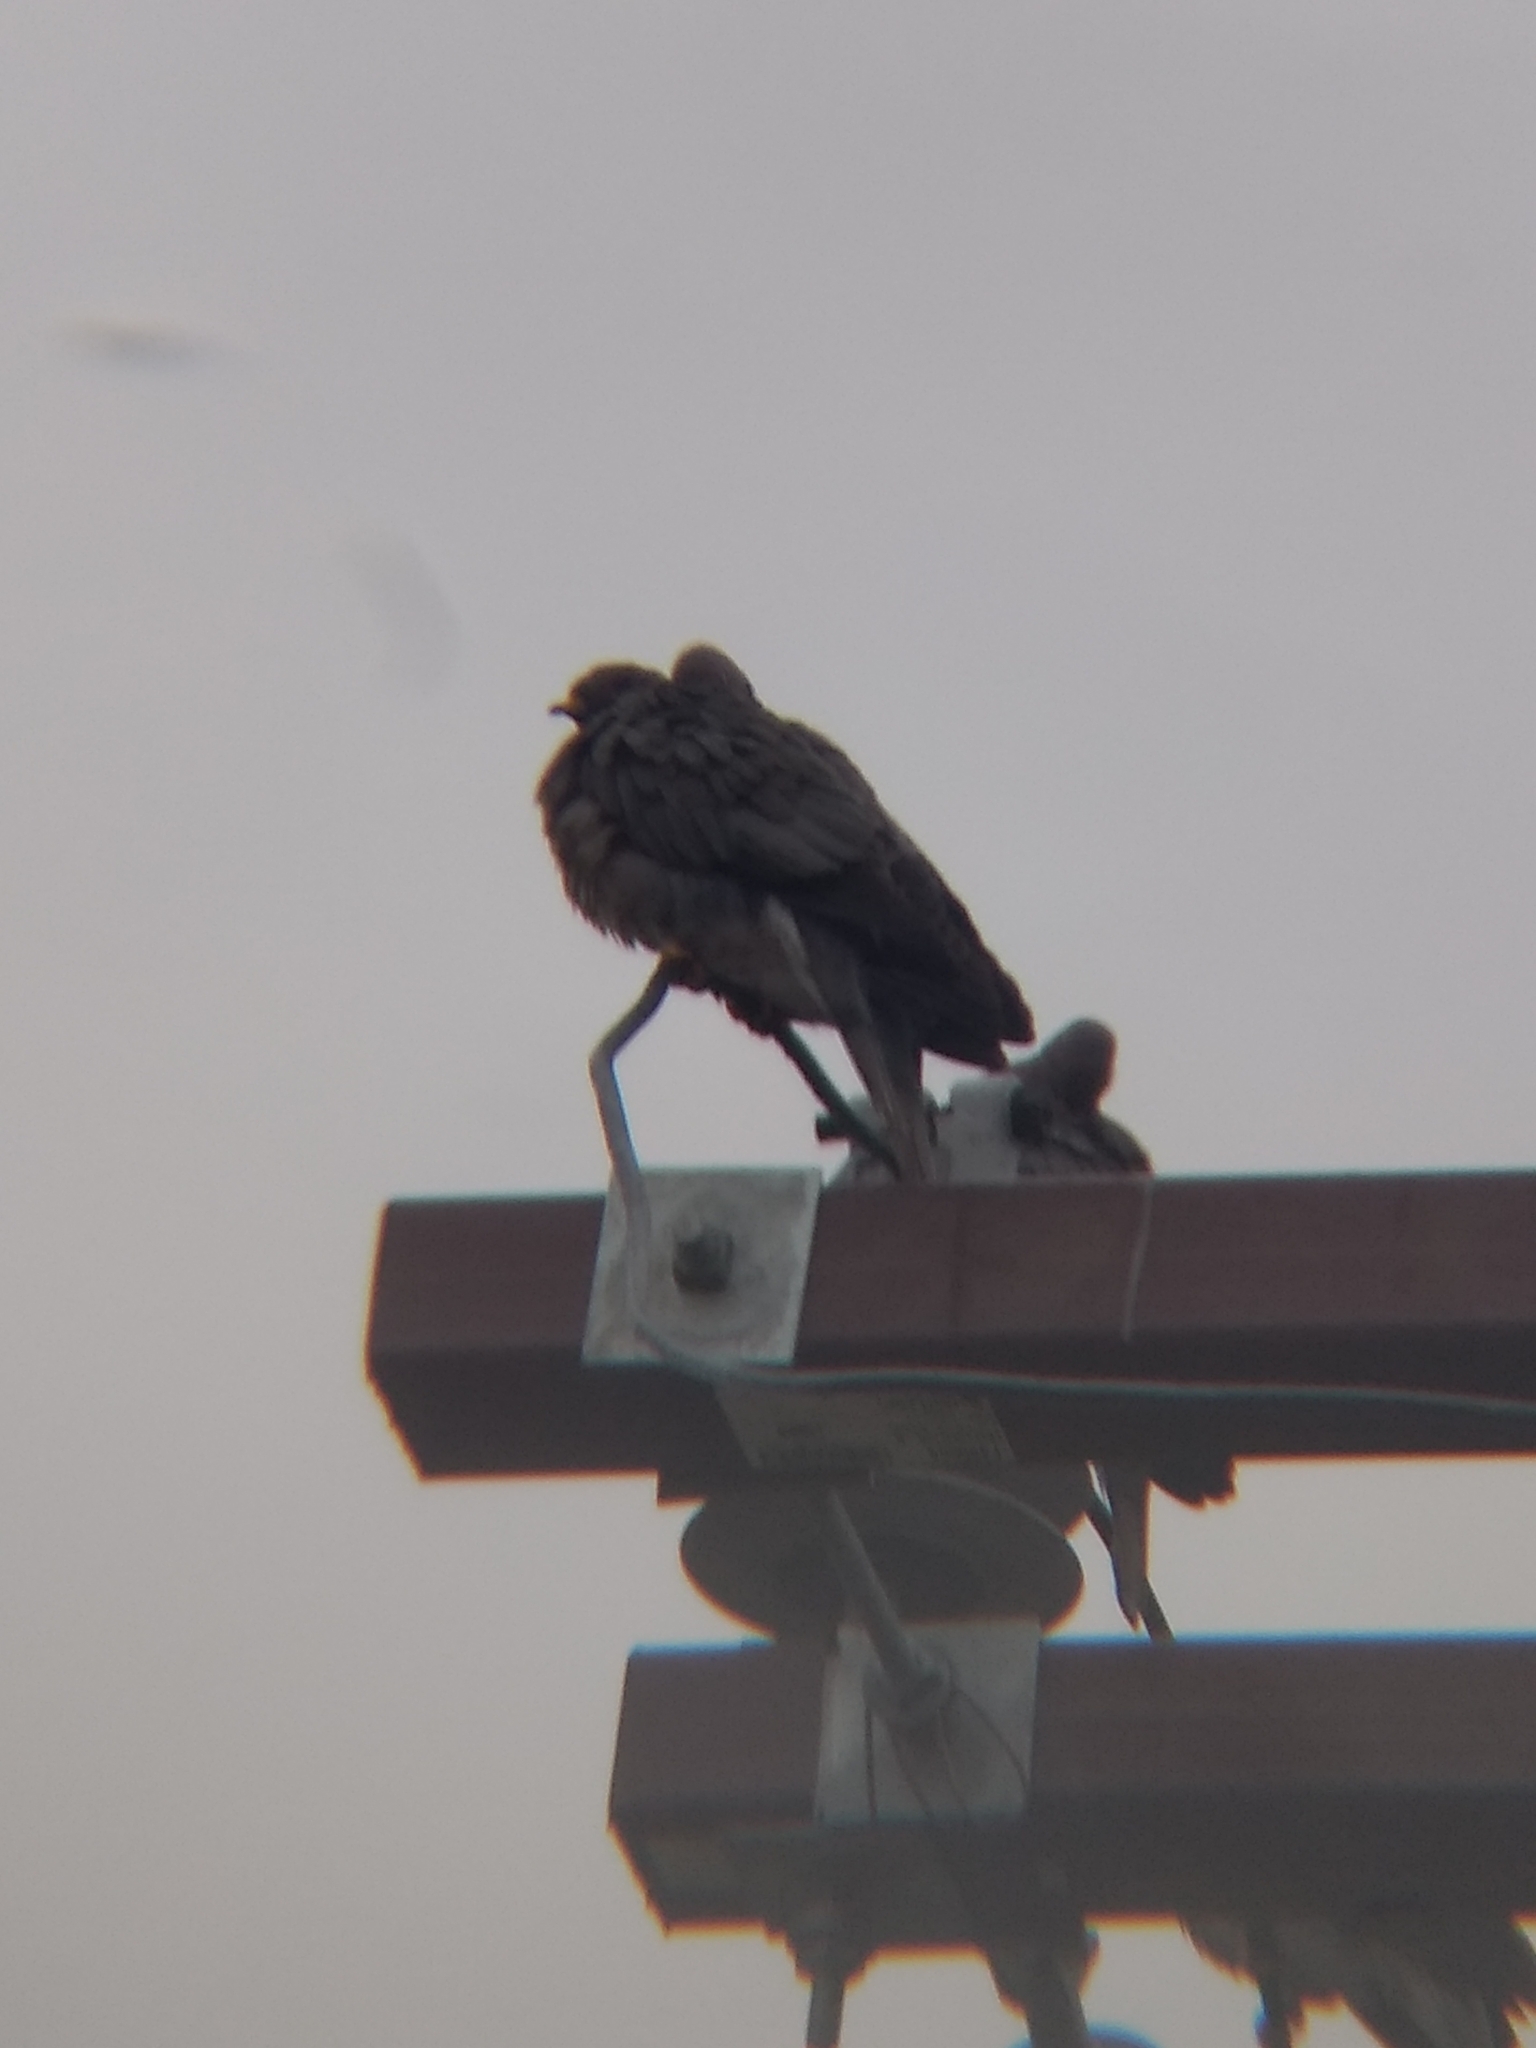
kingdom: Animalia
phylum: Chordata
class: Aves
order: Columbiformes
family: Columbidae
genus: Patagioenas
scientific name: Patagioenas fasciata
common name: Band-tailed pigeon
